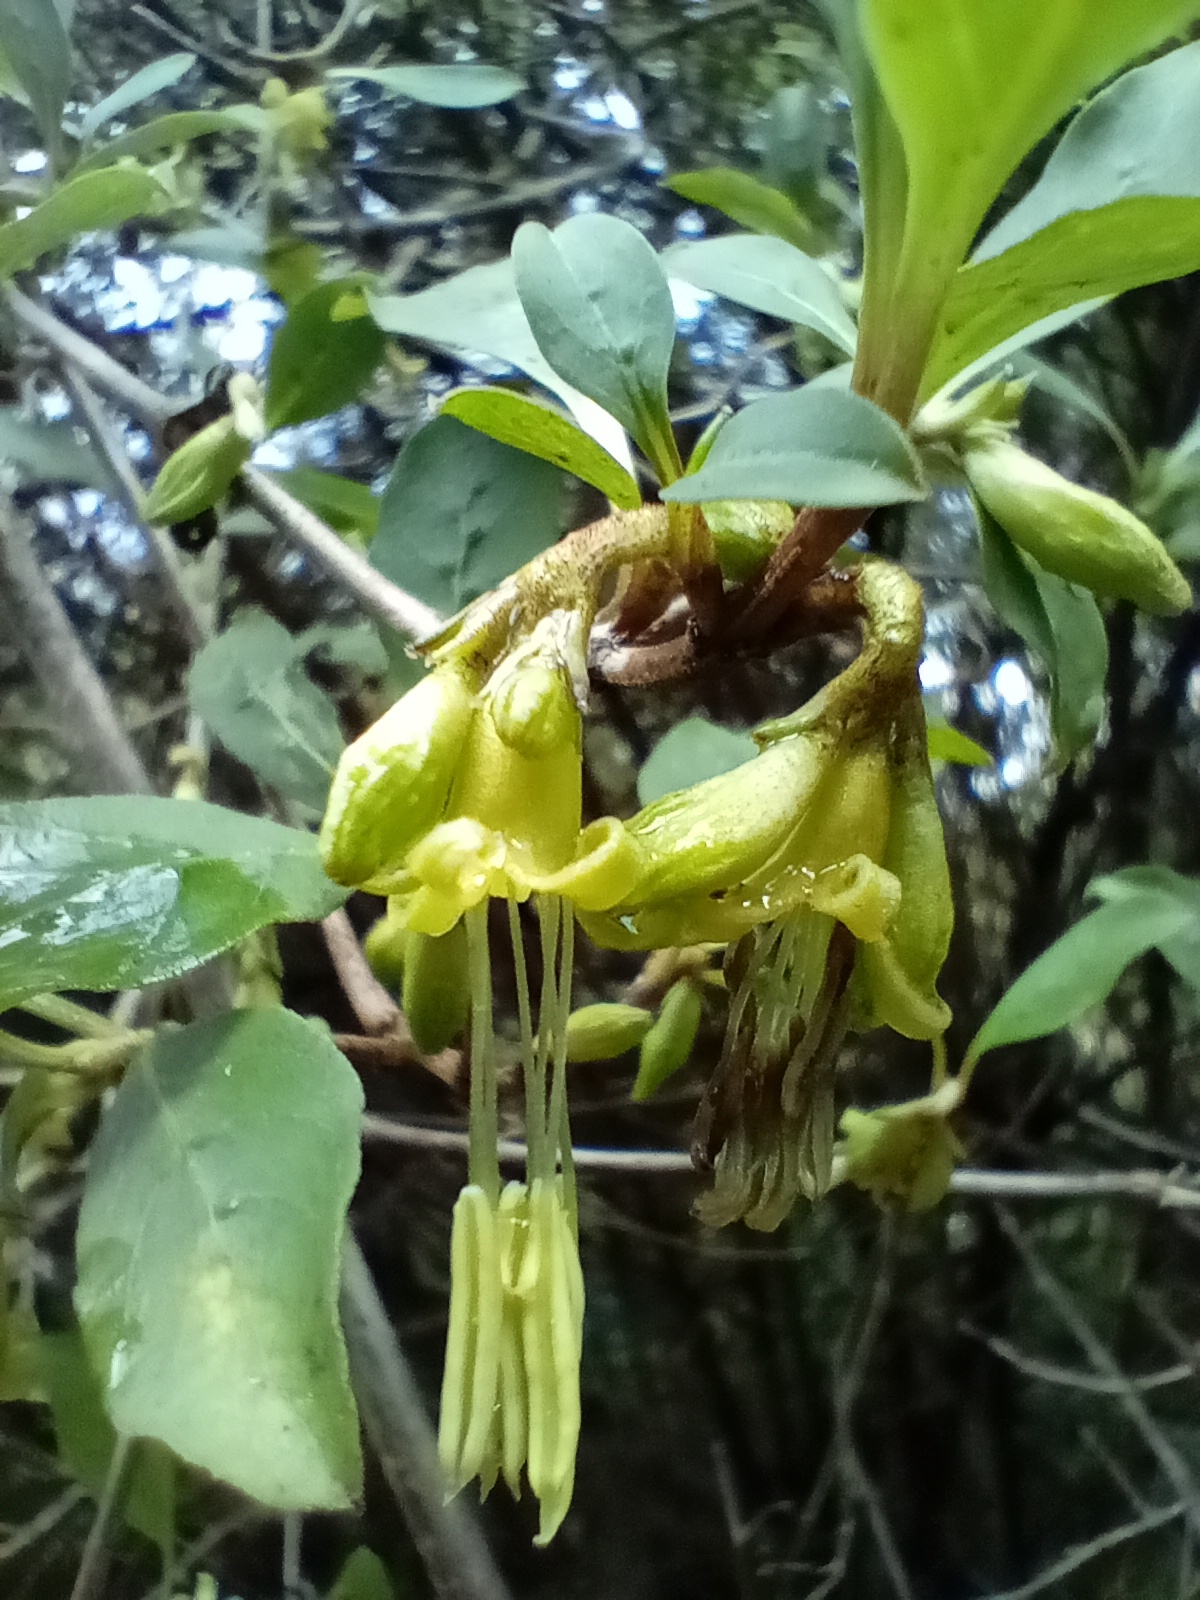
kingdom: Plantae
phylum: Tracheophyta
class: Magnoliopsida
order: Gentianales
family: Rubiaceae
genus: Coprosma
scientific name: Coprosma foetidissima
